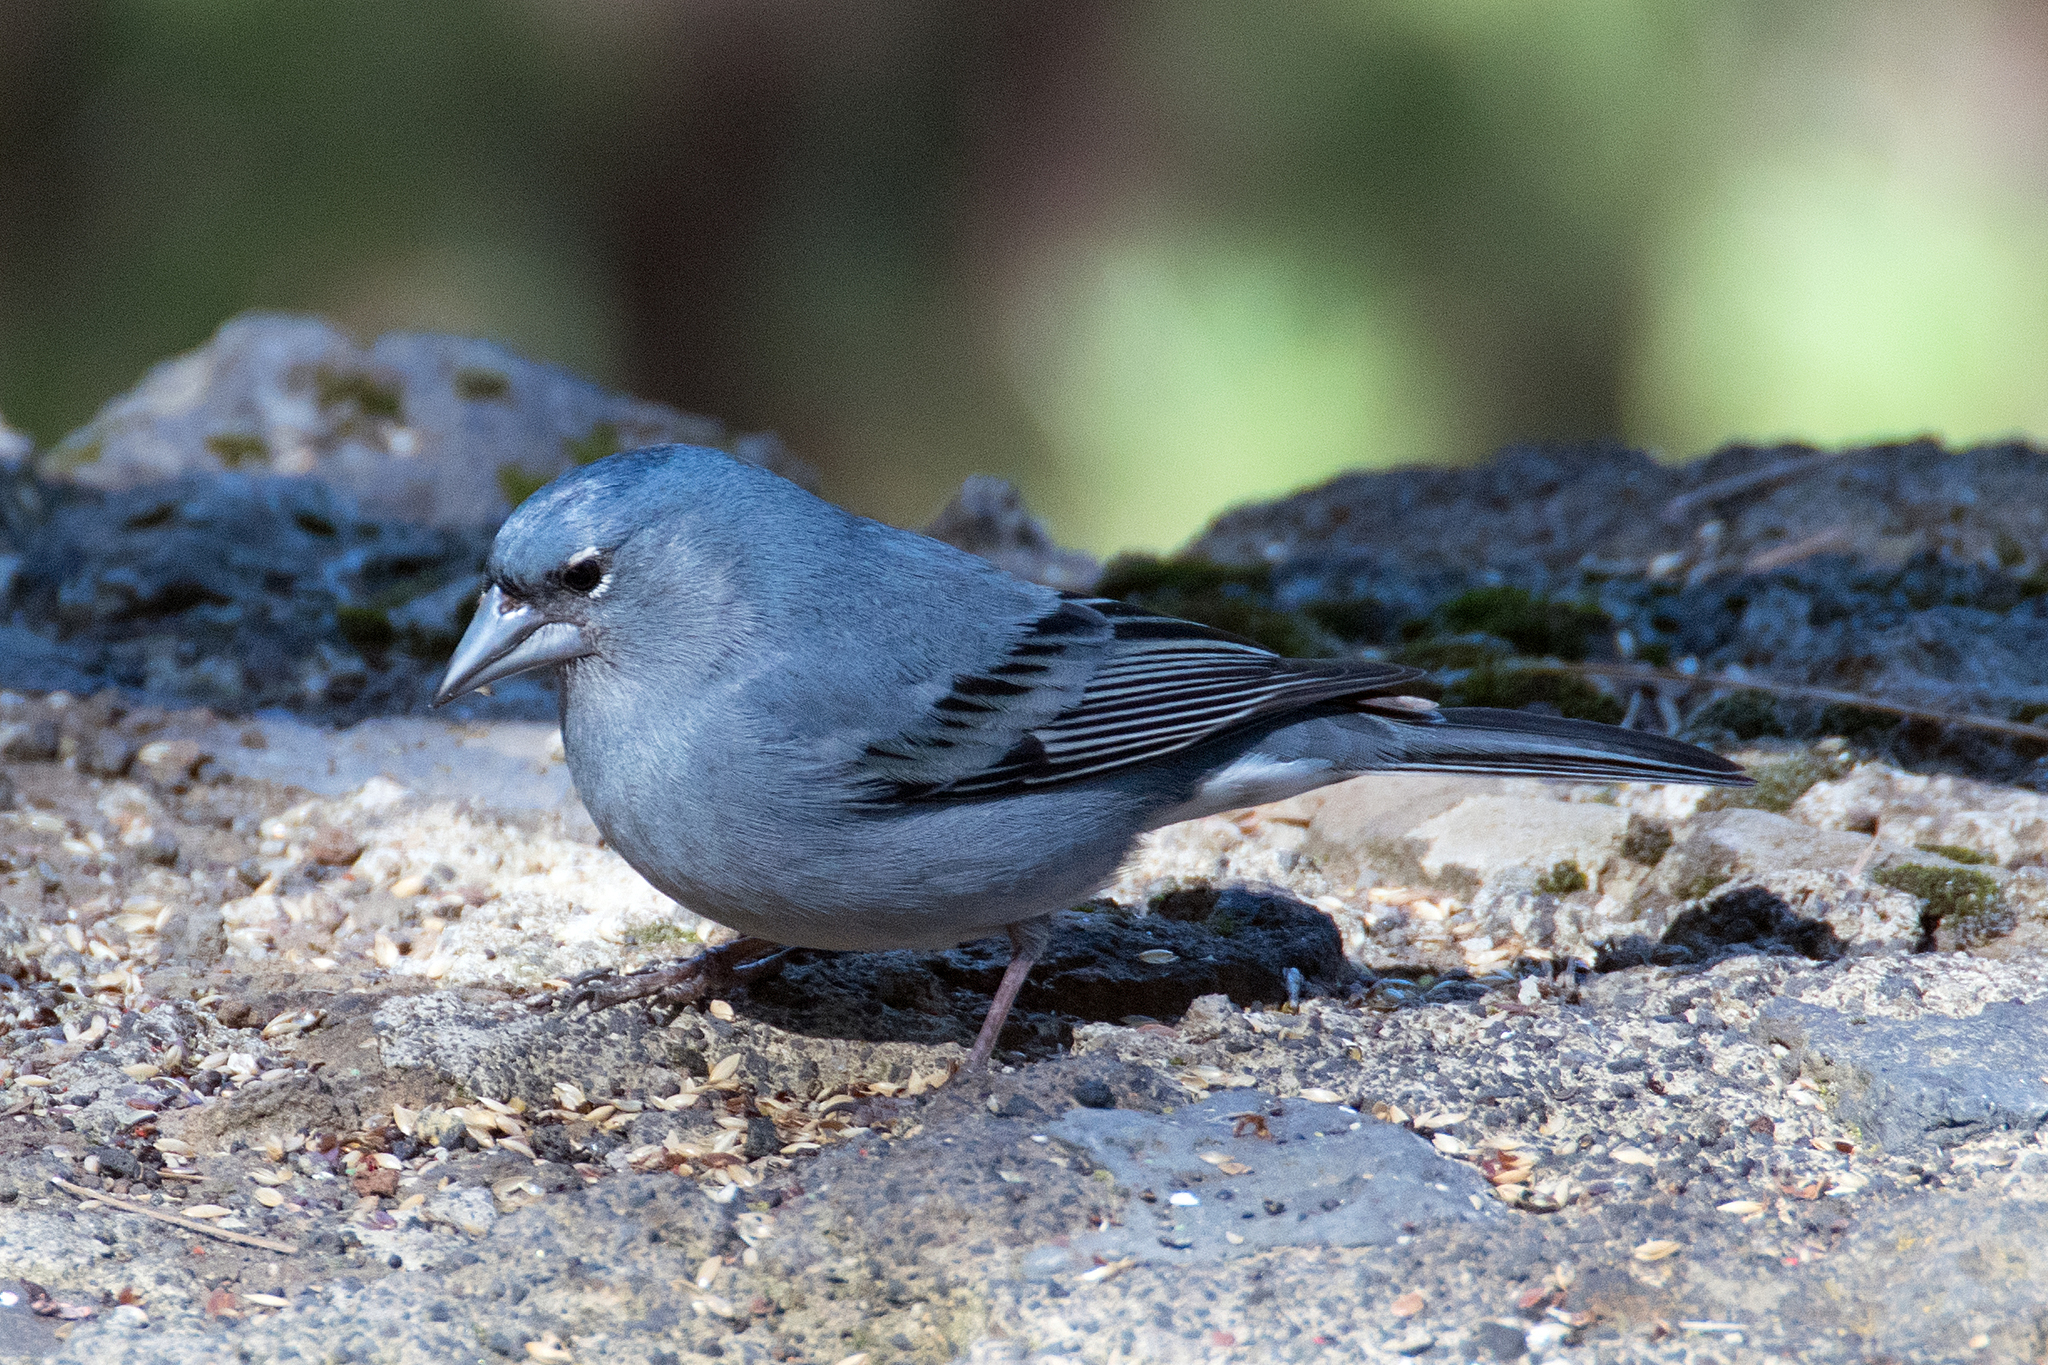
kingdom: Animalia
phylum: Chordata
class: Aves
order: Passeriformes
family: Fringillidae
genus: Fringilla
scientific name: Fringilla teydea
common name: Blue chaffinch
